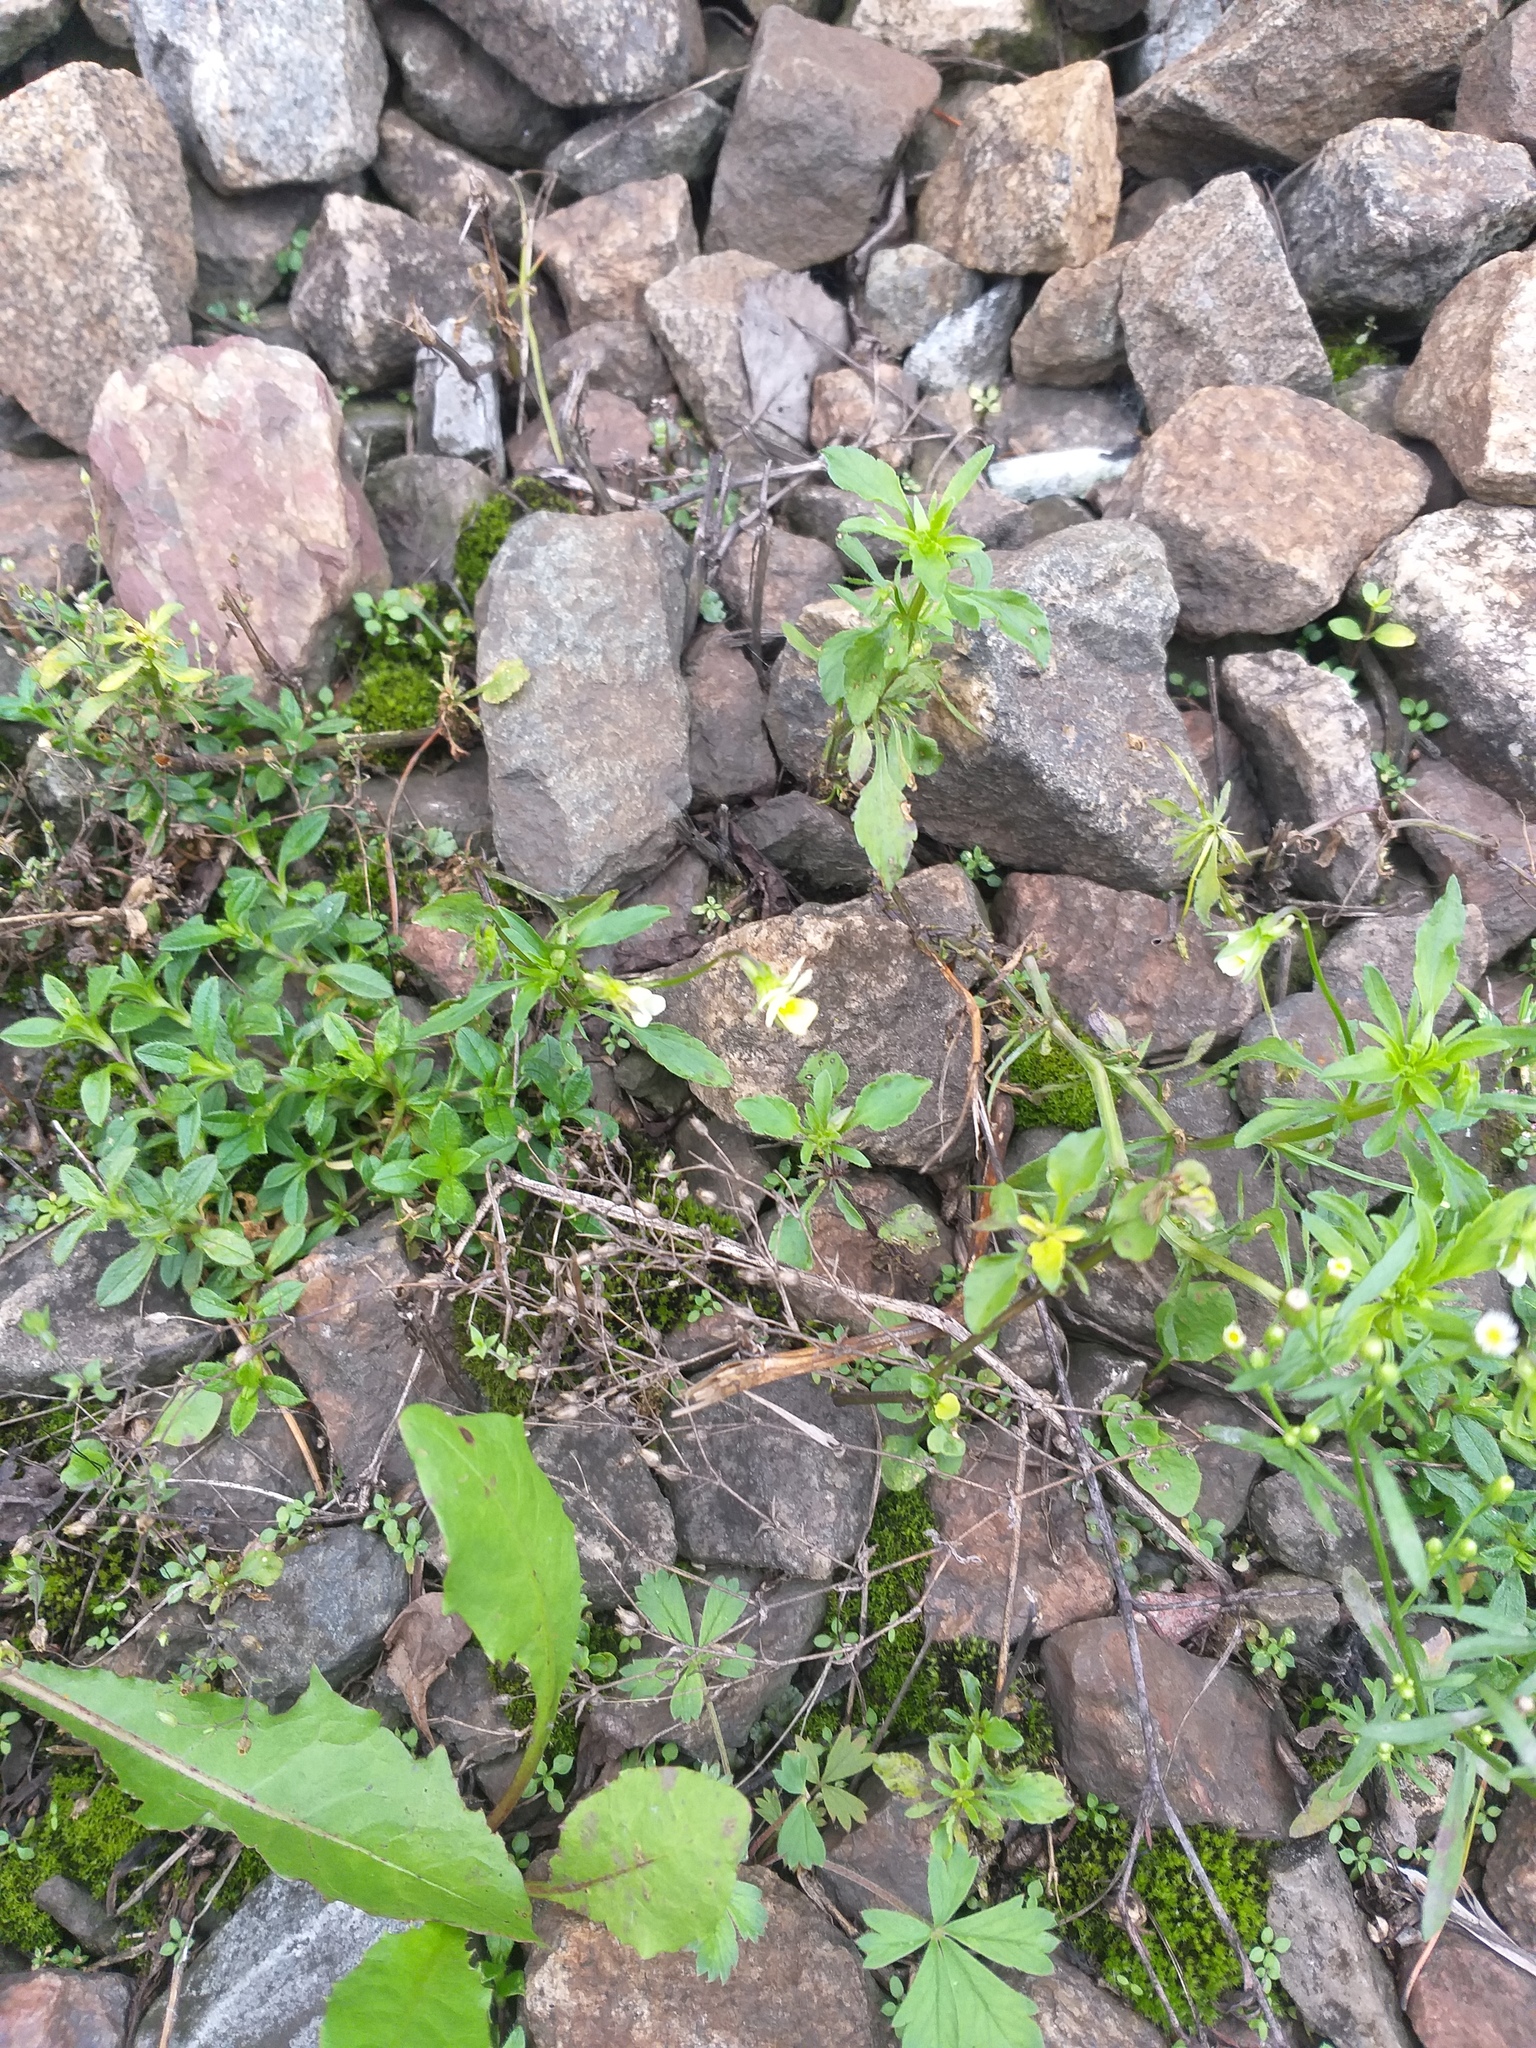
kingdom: Plantae
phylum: Tracheophyta
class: Magnoliopsida
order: Malpighiales
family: Violaceae
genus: Viola
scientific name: Viola arvensis
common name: Field pansy
